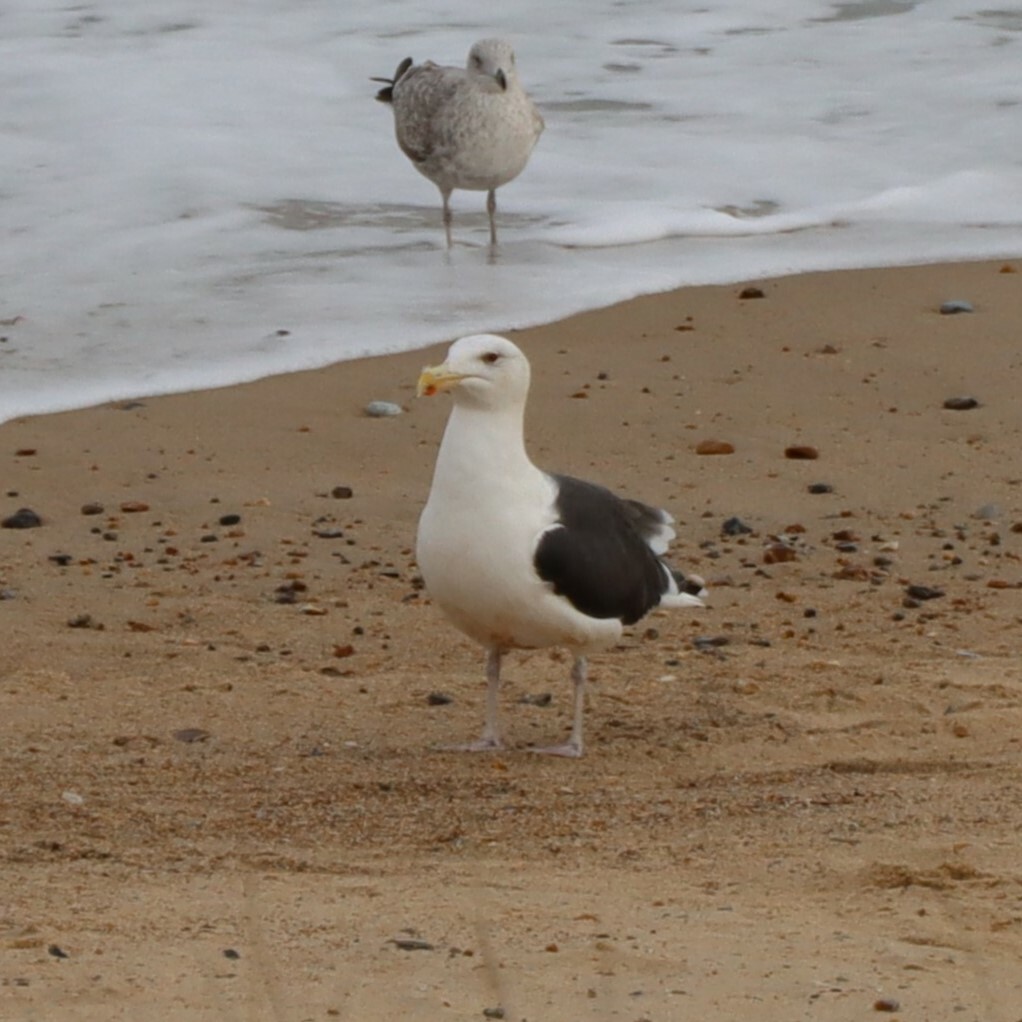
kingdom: Animalia
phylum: Chordata
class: Aves
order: Charadriiformes
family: Laridae
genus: Larus
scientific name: Larus marinus
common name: Great black-backed gull
